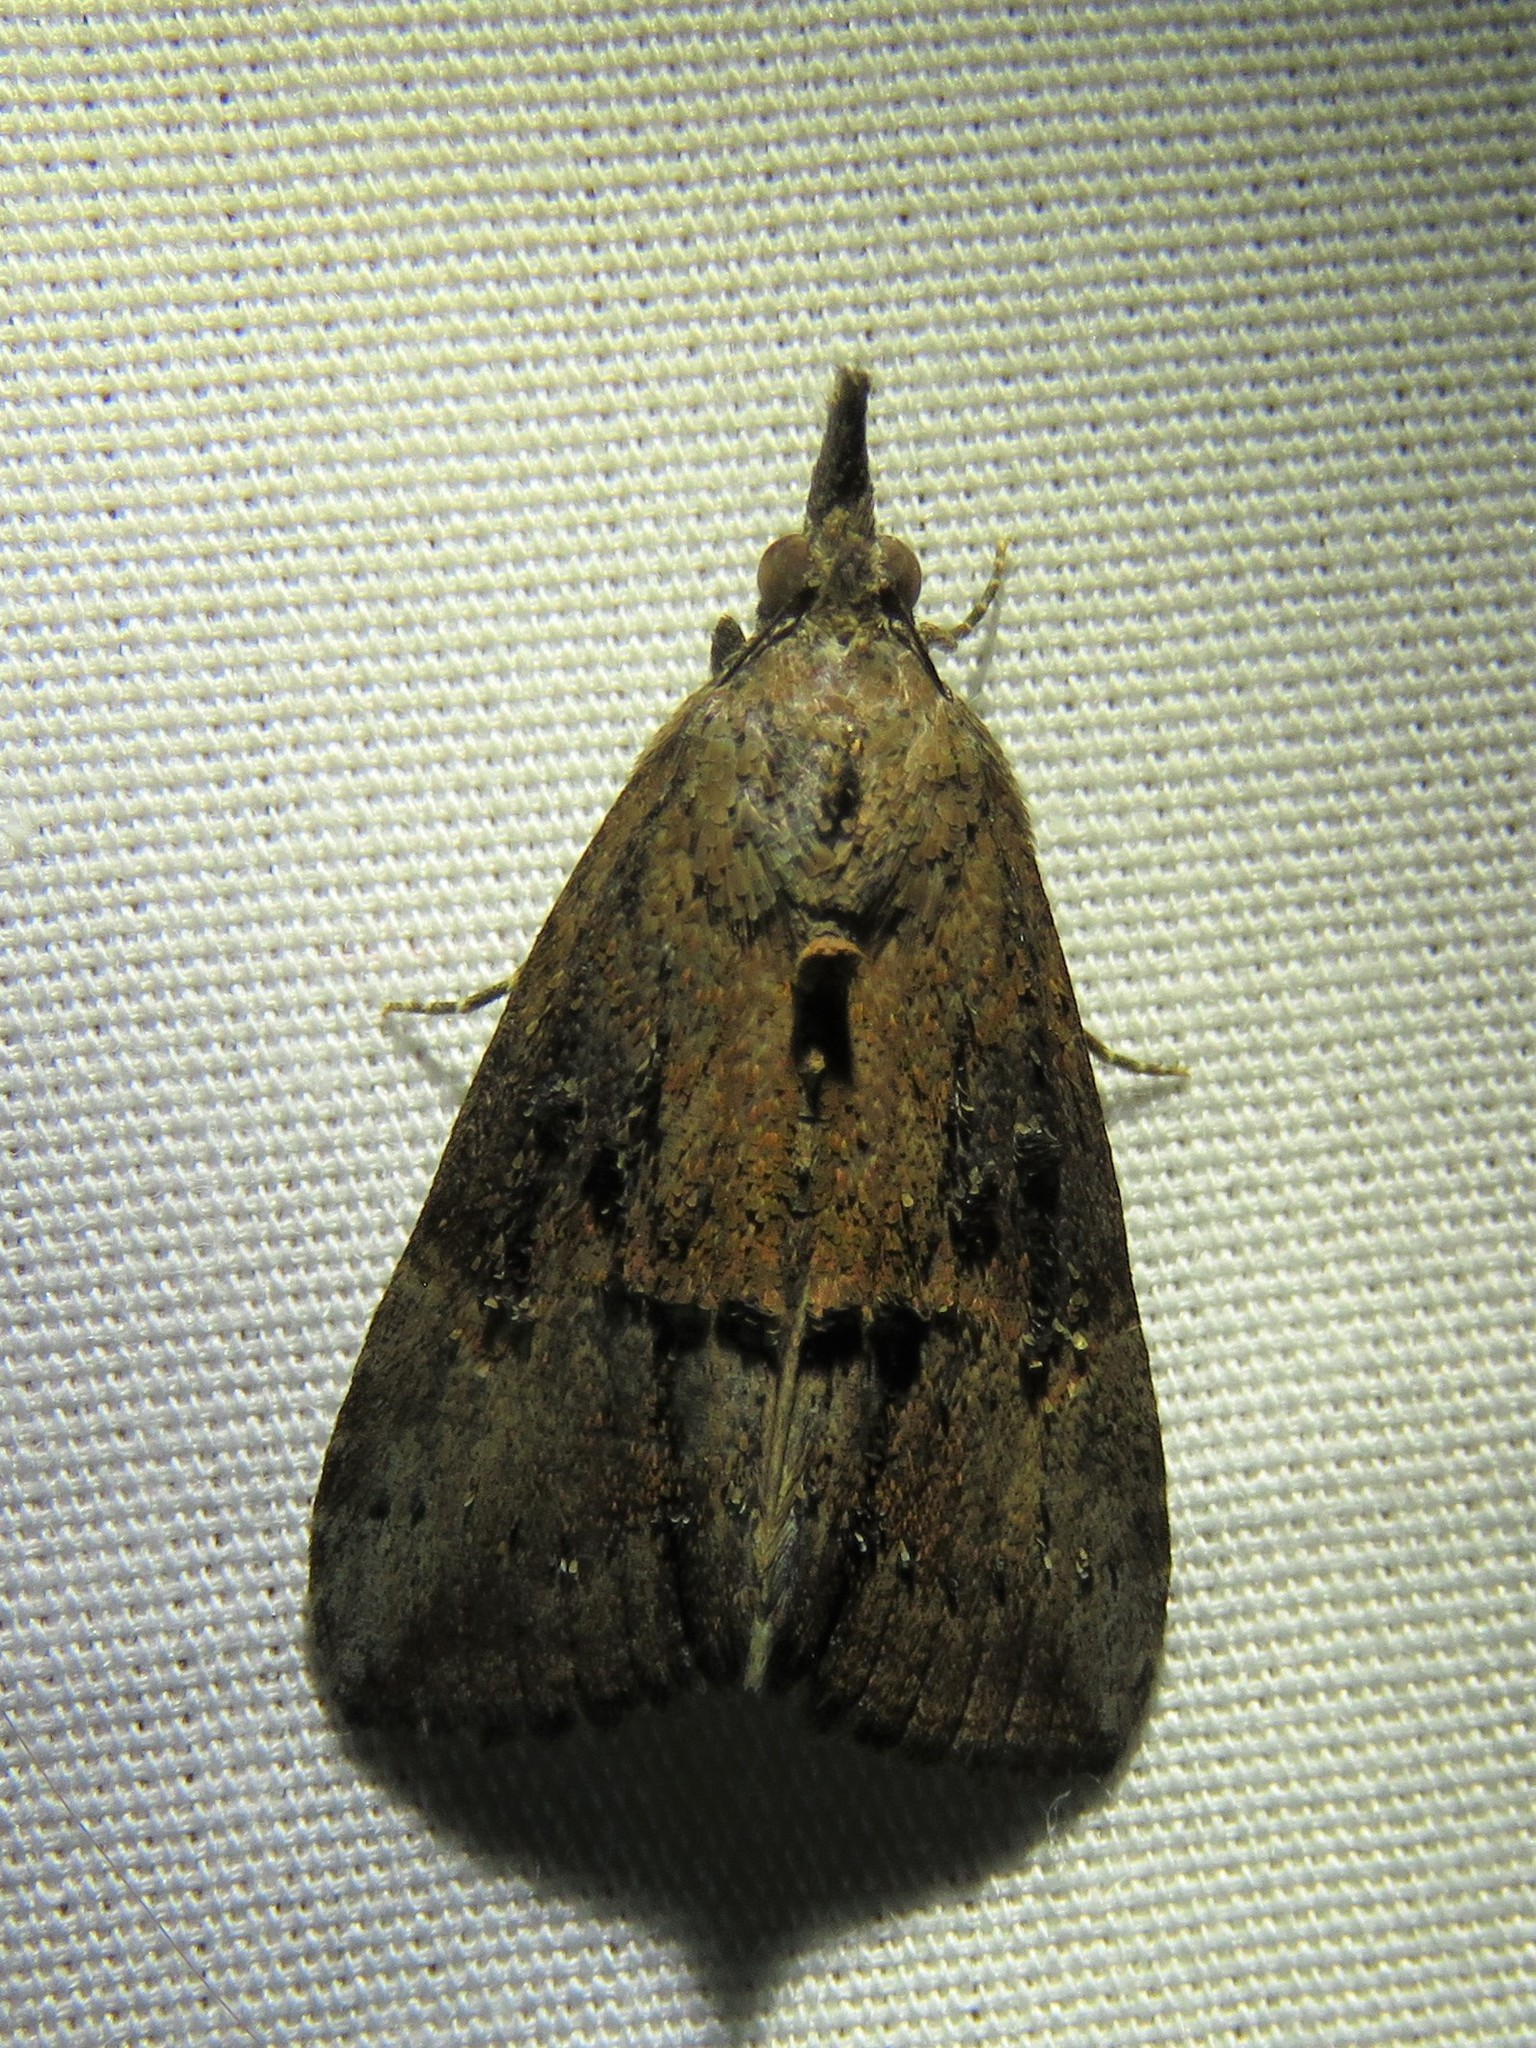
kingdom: Animalia
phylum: Arthropoda
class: Insecta
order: Lepidoptera
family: Erebidae
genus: Hypena
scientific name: Hypena scabra
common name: Green cloverworm
